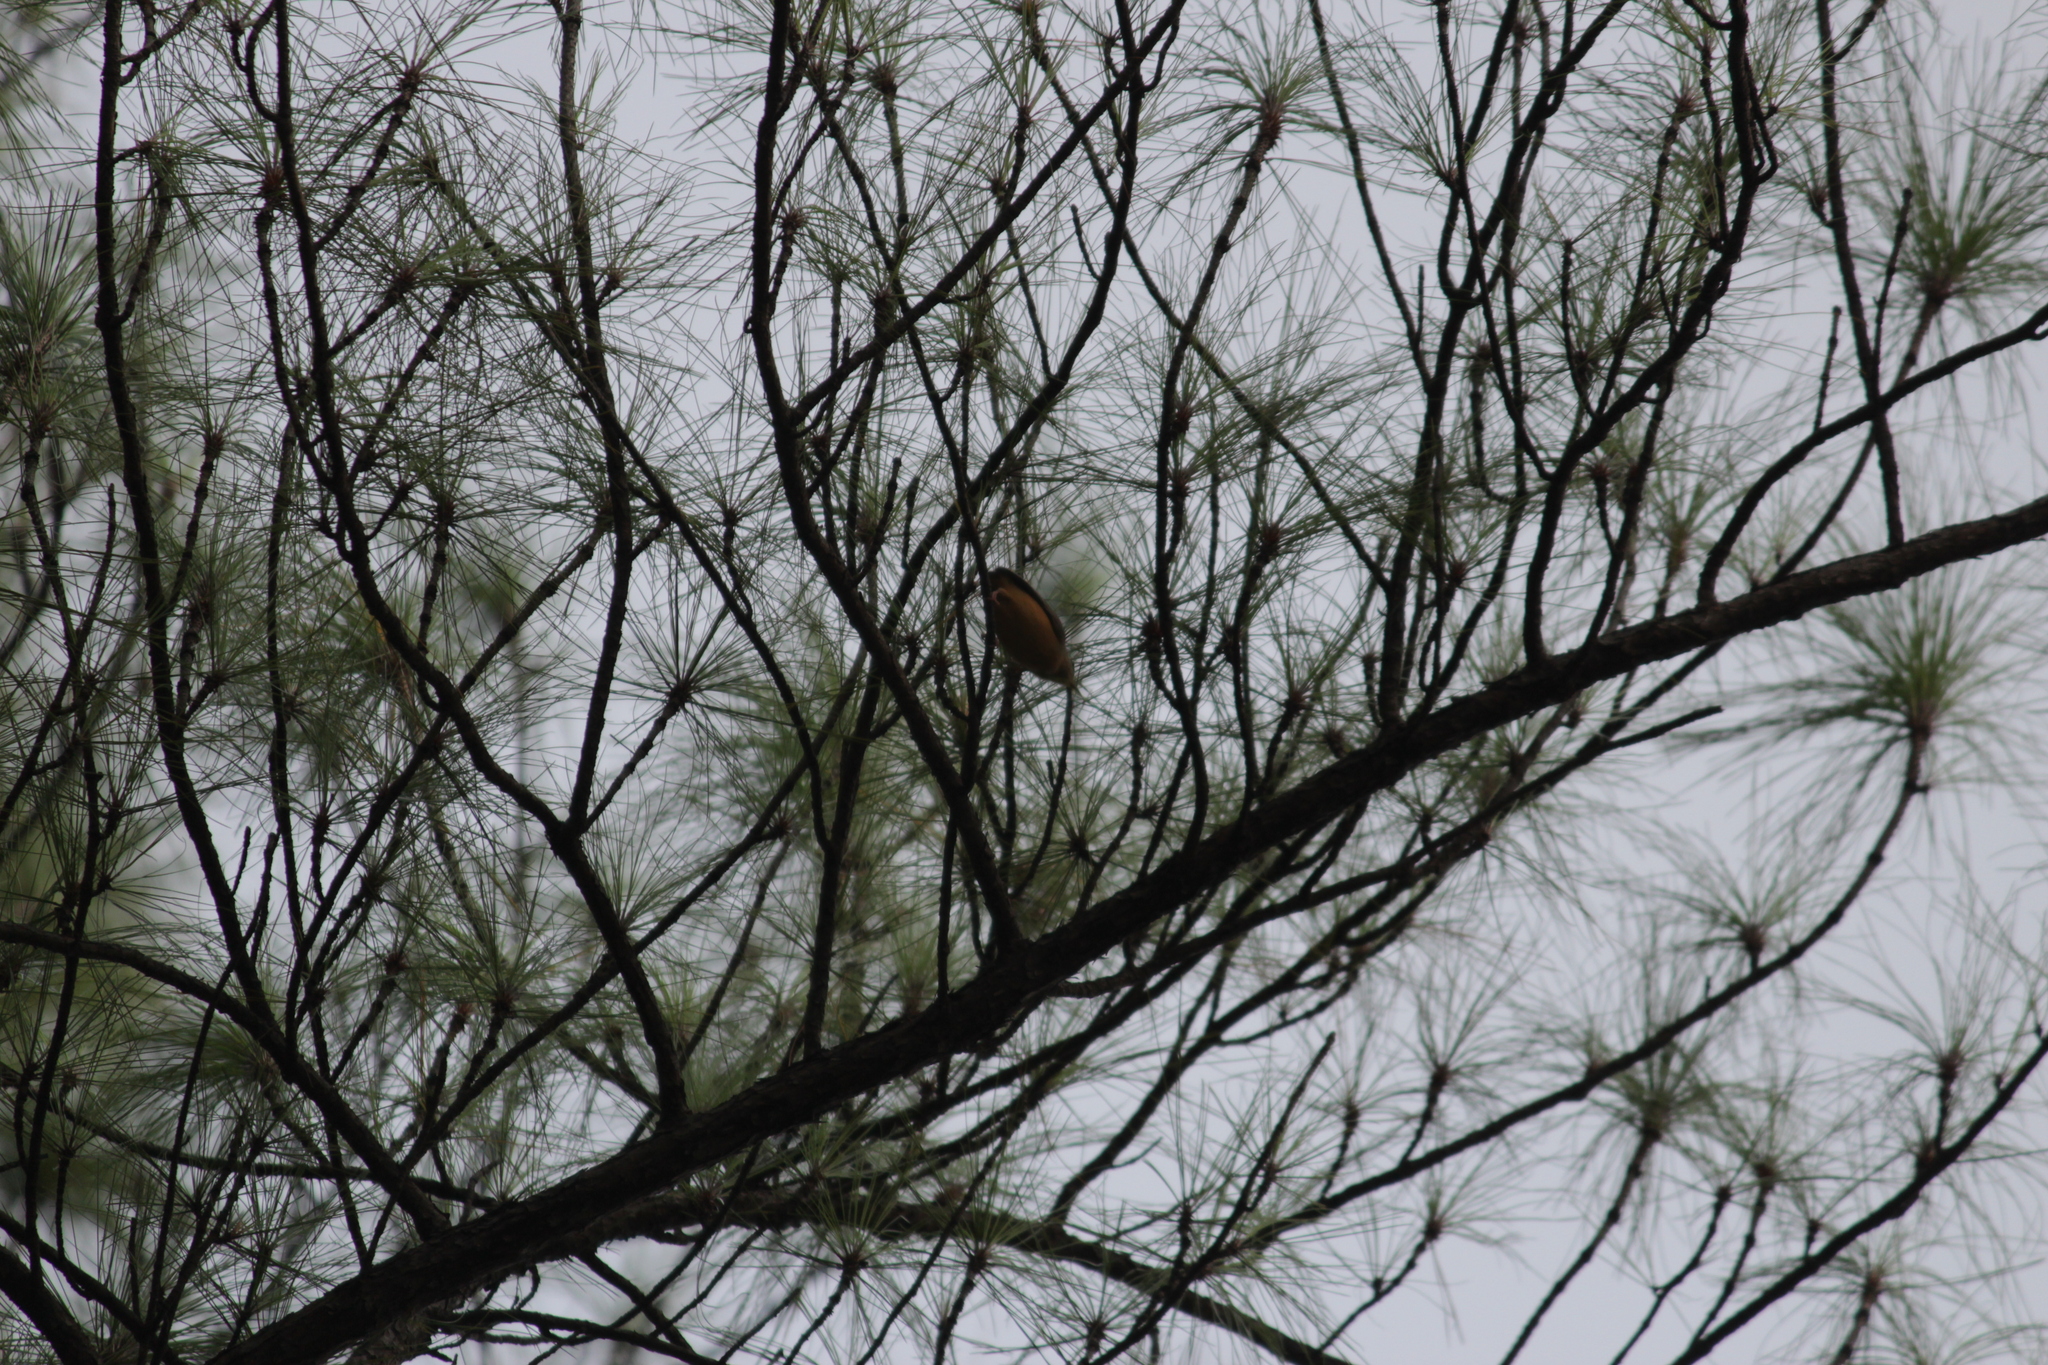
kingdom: Animalia
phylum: Chordata
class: Aves
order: Passeriformes
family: Macrosphenidae
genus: Sylvietta
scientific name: Sylvietta whytii
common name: Red-faced crombec
